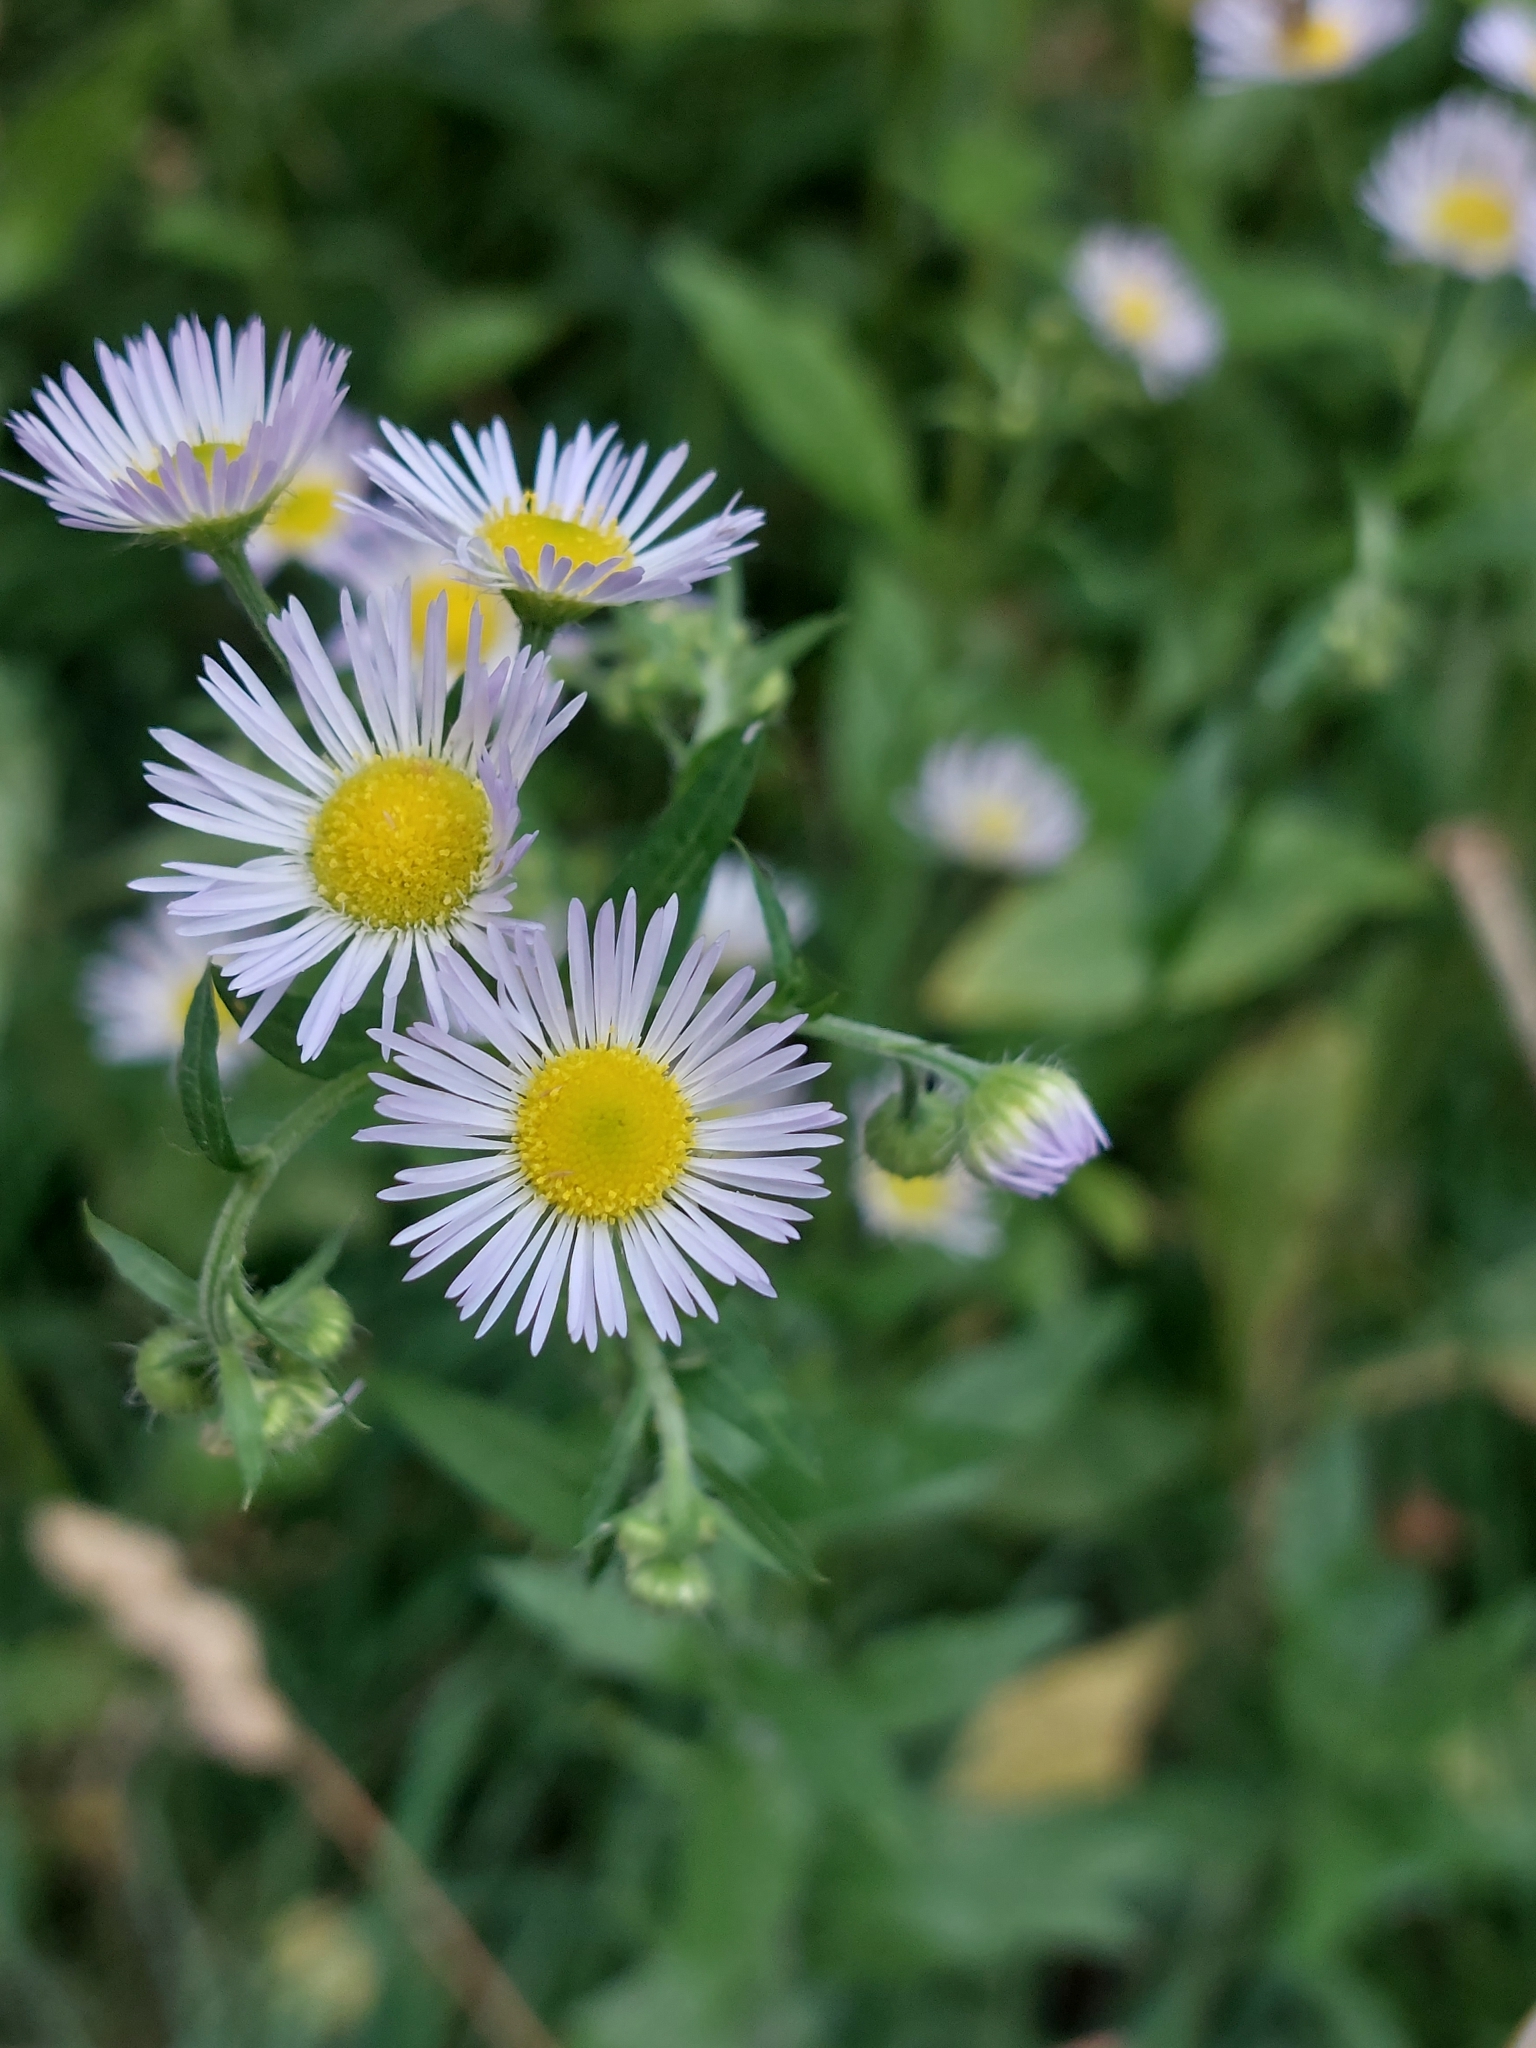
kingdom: Plantae
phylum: Tracheophyta
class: Magnoliopsida
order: Asterales
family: Asteraceae
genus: Erigeron
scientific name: Erigeron annuus
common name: Tall fleabane
